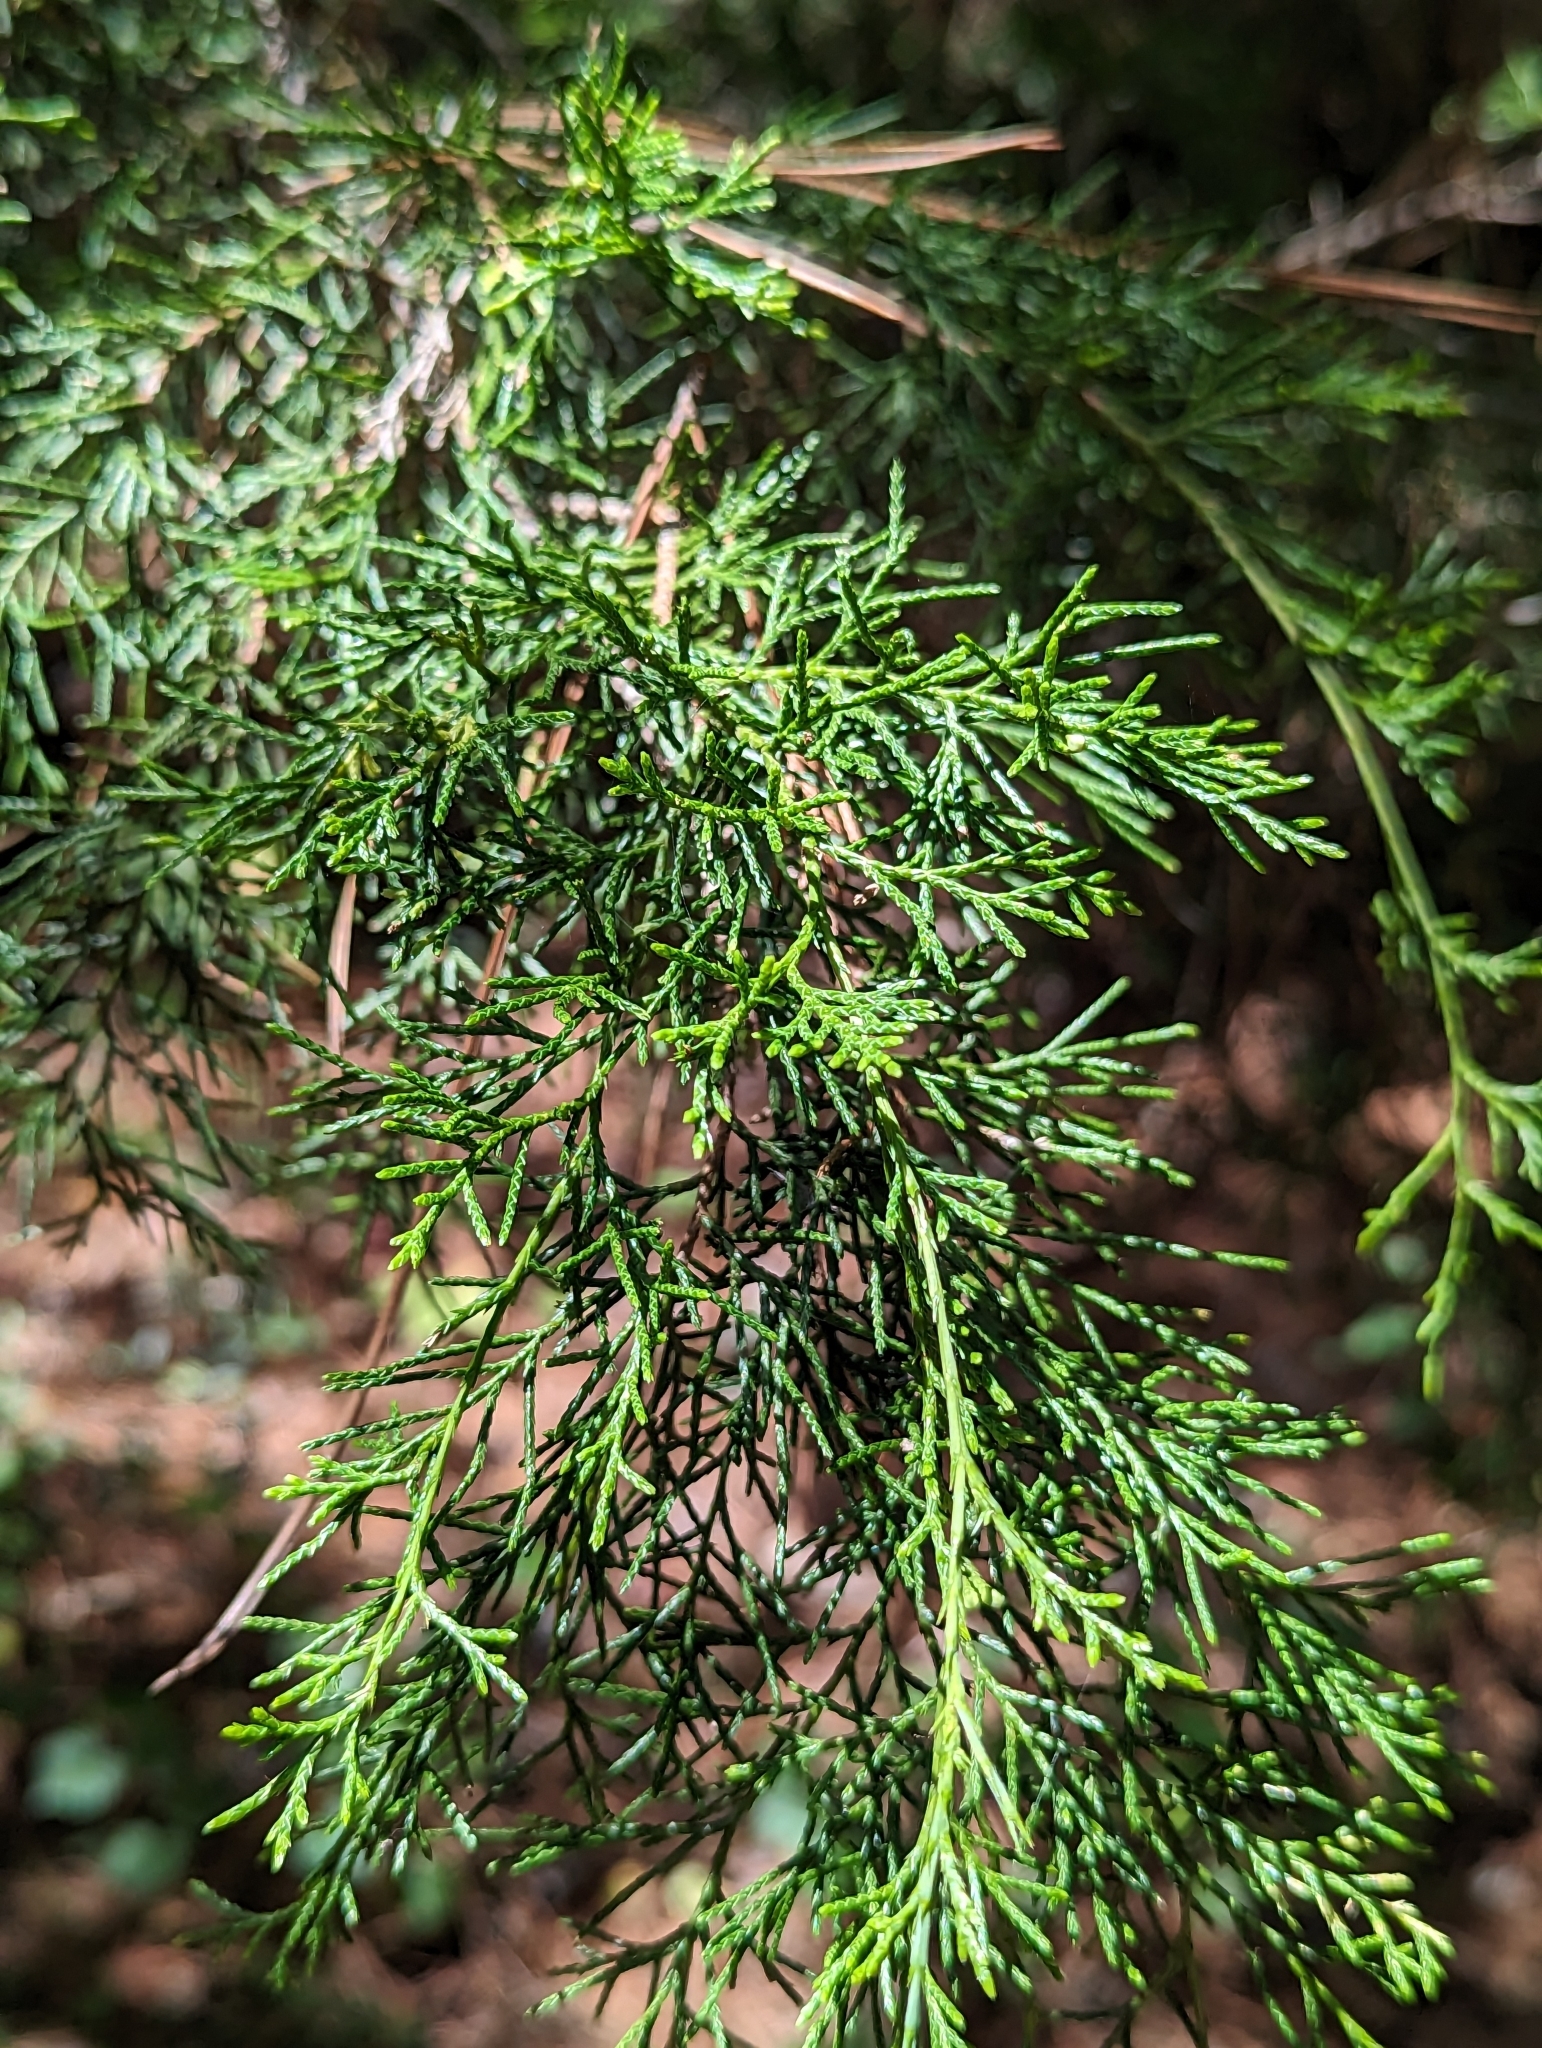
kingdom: Plantae
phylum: Tracheophyta
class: Pinopsida
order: Pinales
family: Cupressaceae
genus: Juniperus
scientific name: Juniperus virginiana
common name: Red juniper
